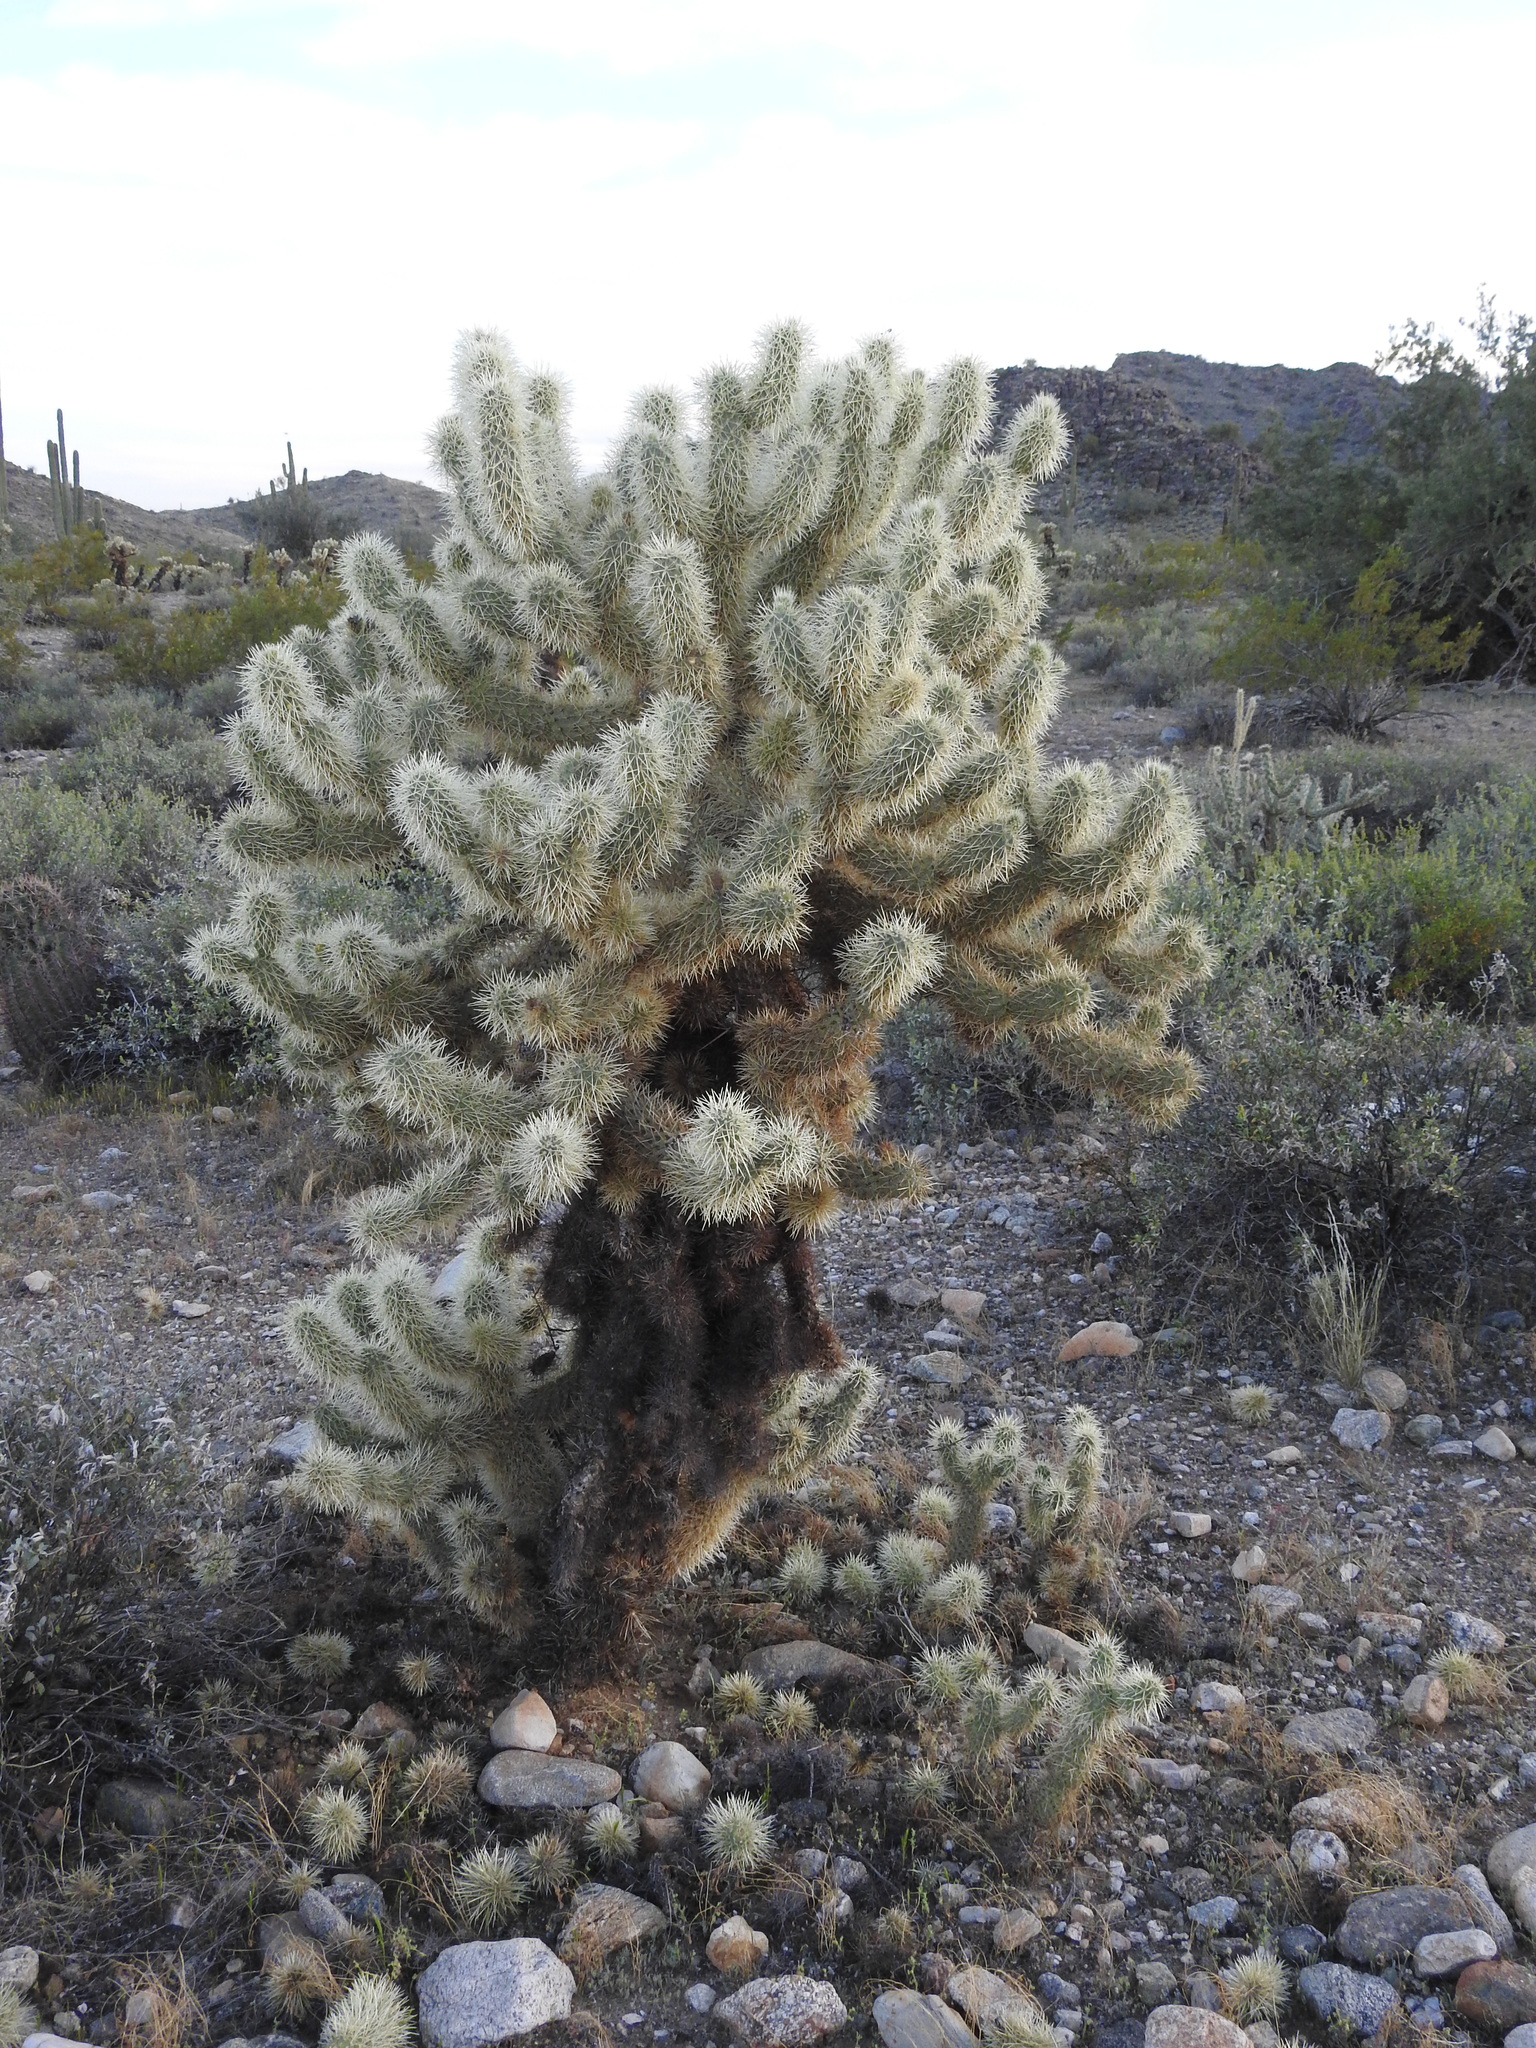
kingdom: Plantae
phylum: Tracheophyta
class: Magnoliopsida
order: Caryophyllales
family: Cactaceae
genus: Cylindropuntia
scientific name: Cylindropuntia fosbergii
